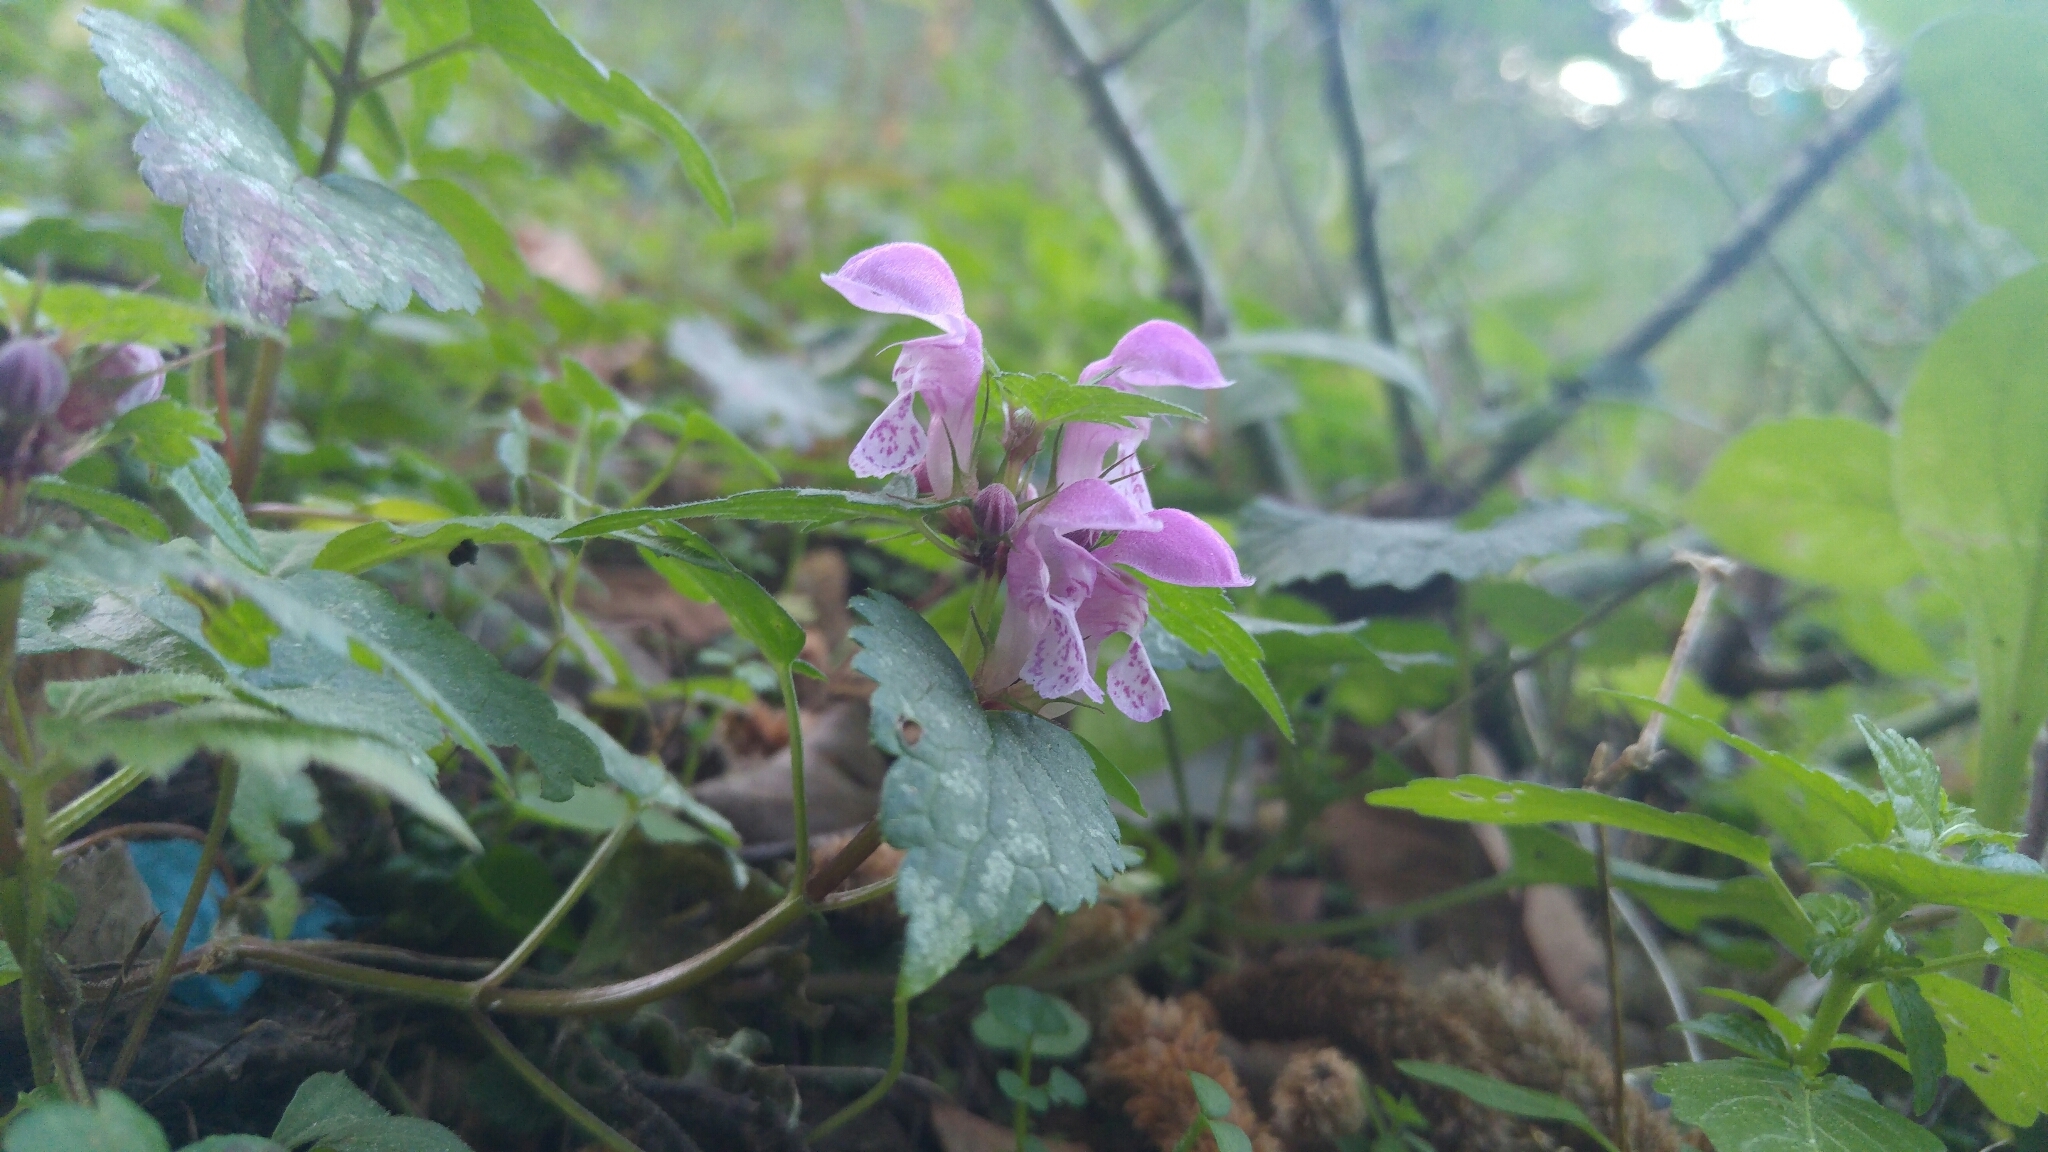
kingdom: Plantae
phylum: Tracheophyta
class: Magnoliopsida
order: Lamiales
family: Lamiaceae
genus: Lamium
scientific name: Lamium maculatum
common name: Spotted dead-nettle
